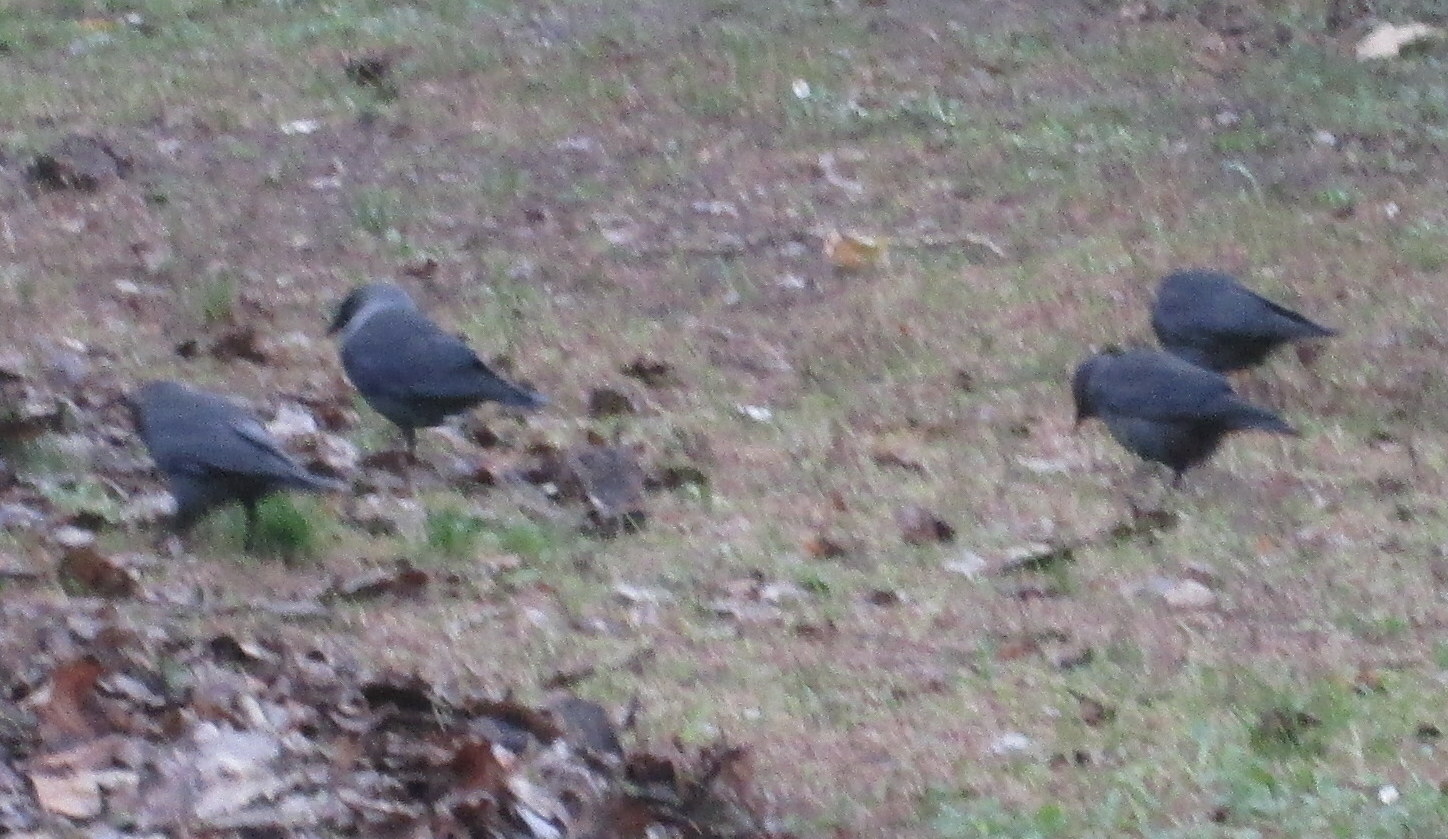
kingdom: Animalia
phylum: Chordata
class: Aves
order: Passeriformes
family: Corvidae
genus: Coloeus
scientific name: Coloeus monedula
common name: Western jackdaw
